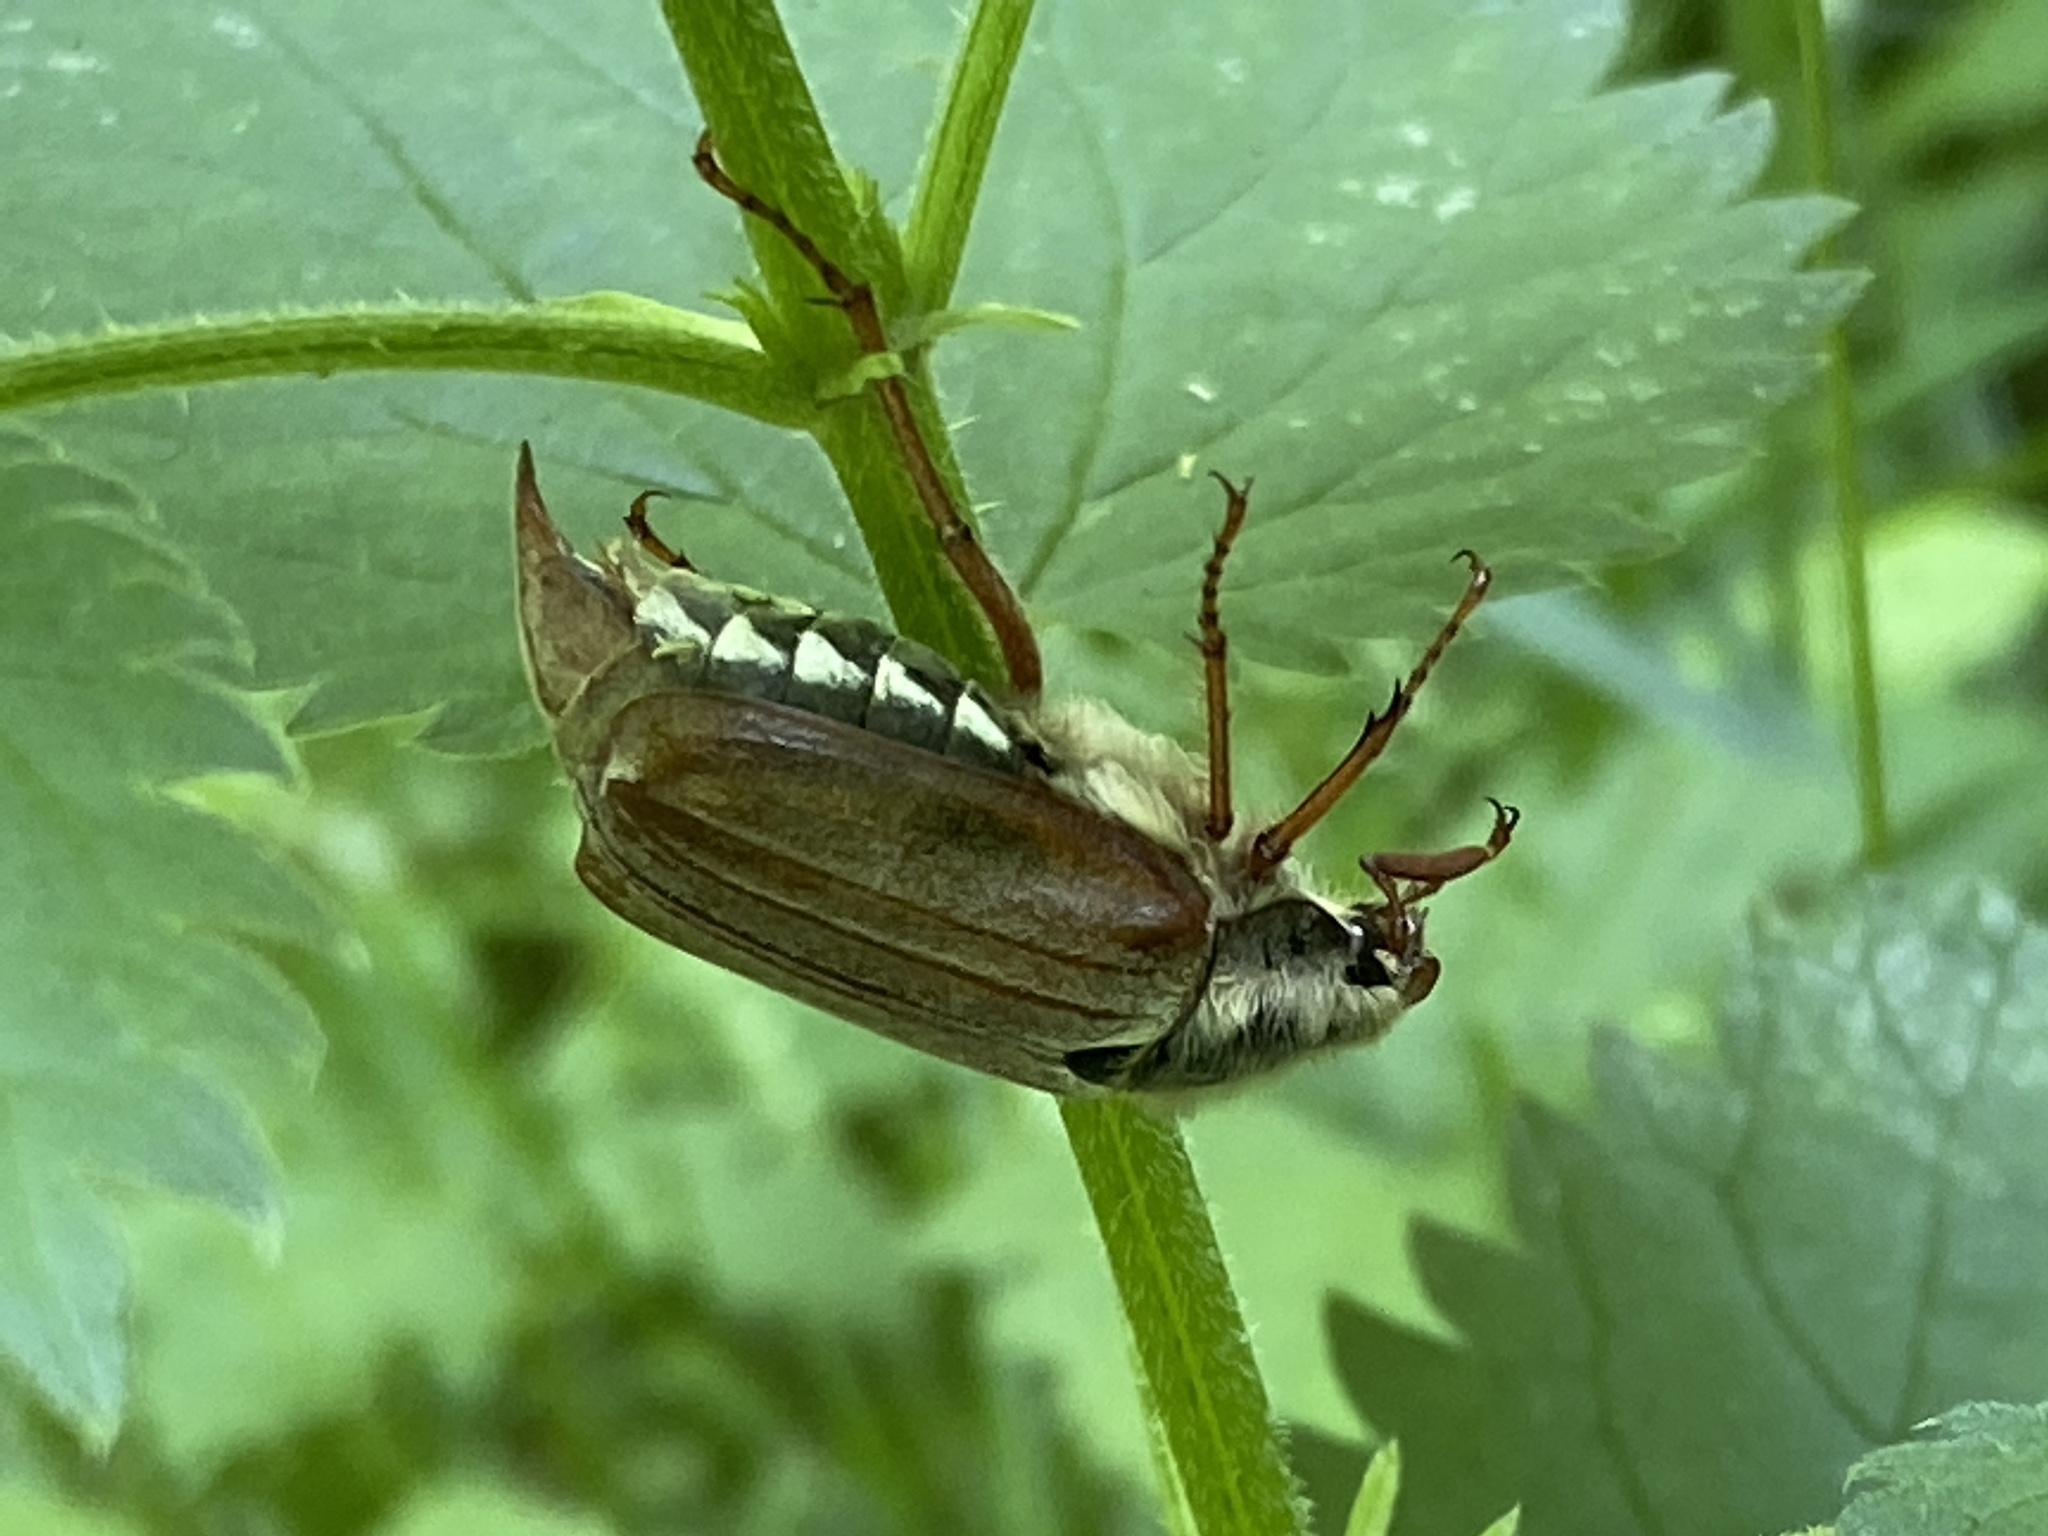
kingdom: Animalia
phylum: Arthropoda
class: Insecta
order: Coleoptera
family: Scarabaeidae
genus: Melolontha
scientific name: Melolontha melolontha
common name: Cockchafer maybeetle
